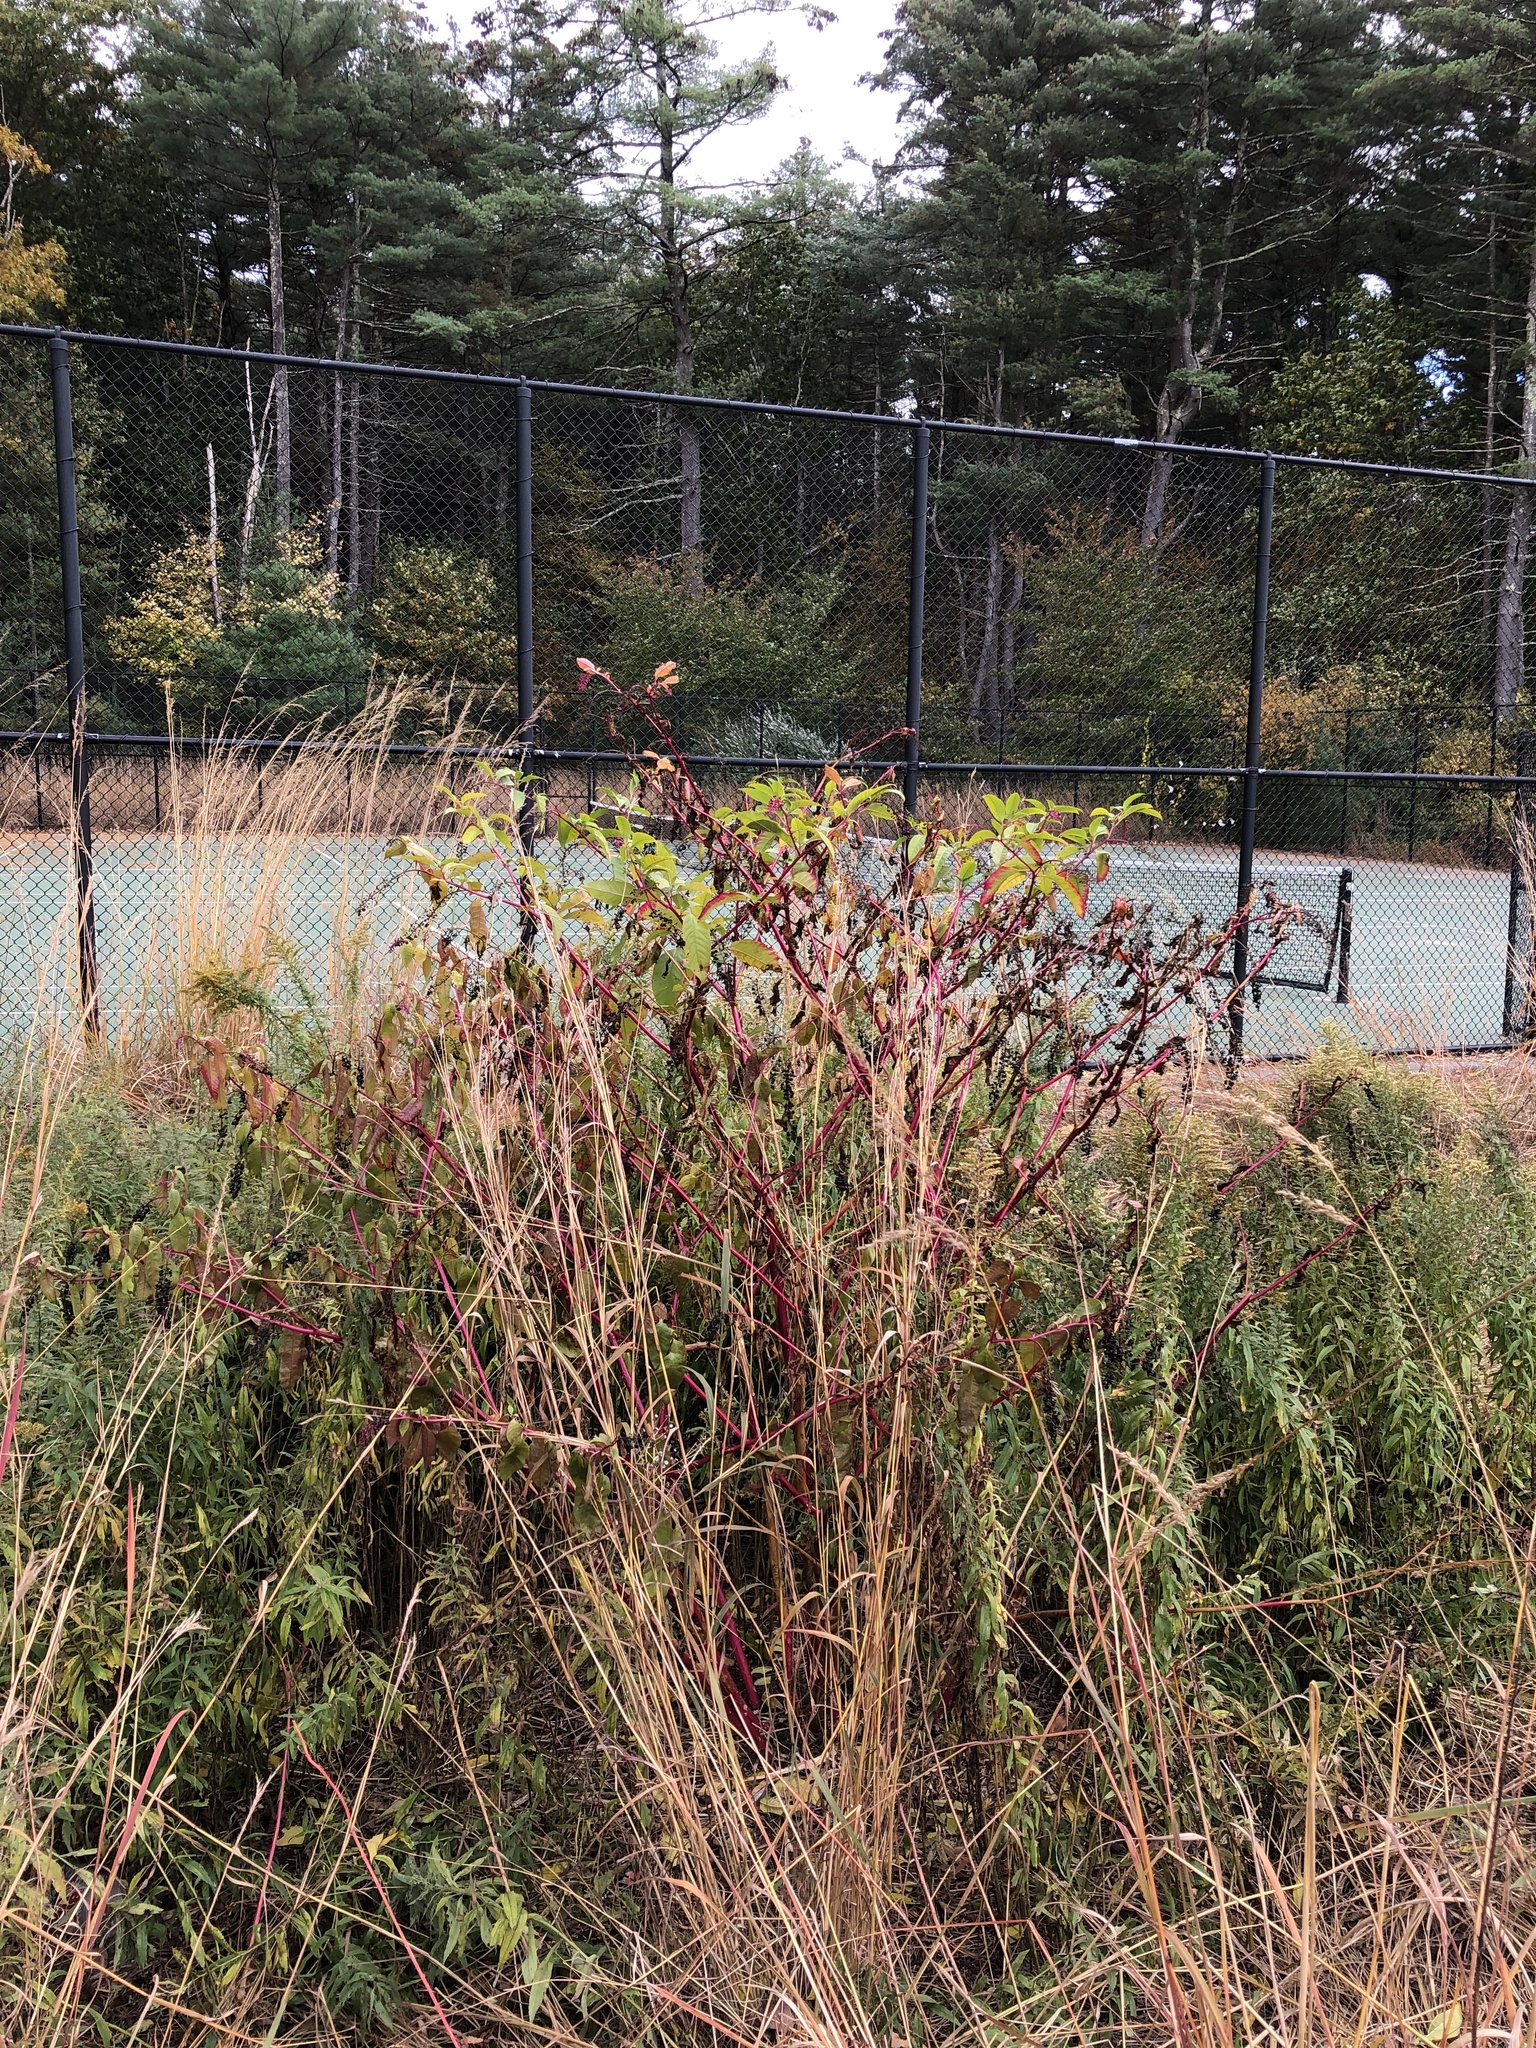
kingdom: Plantae
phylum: Tracheophyta
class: Magnoliopsida
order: Caryophyllales
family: Phytolaccaceae
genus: Phytolacca
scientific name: Phytolacca americana
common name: American pokeweed
